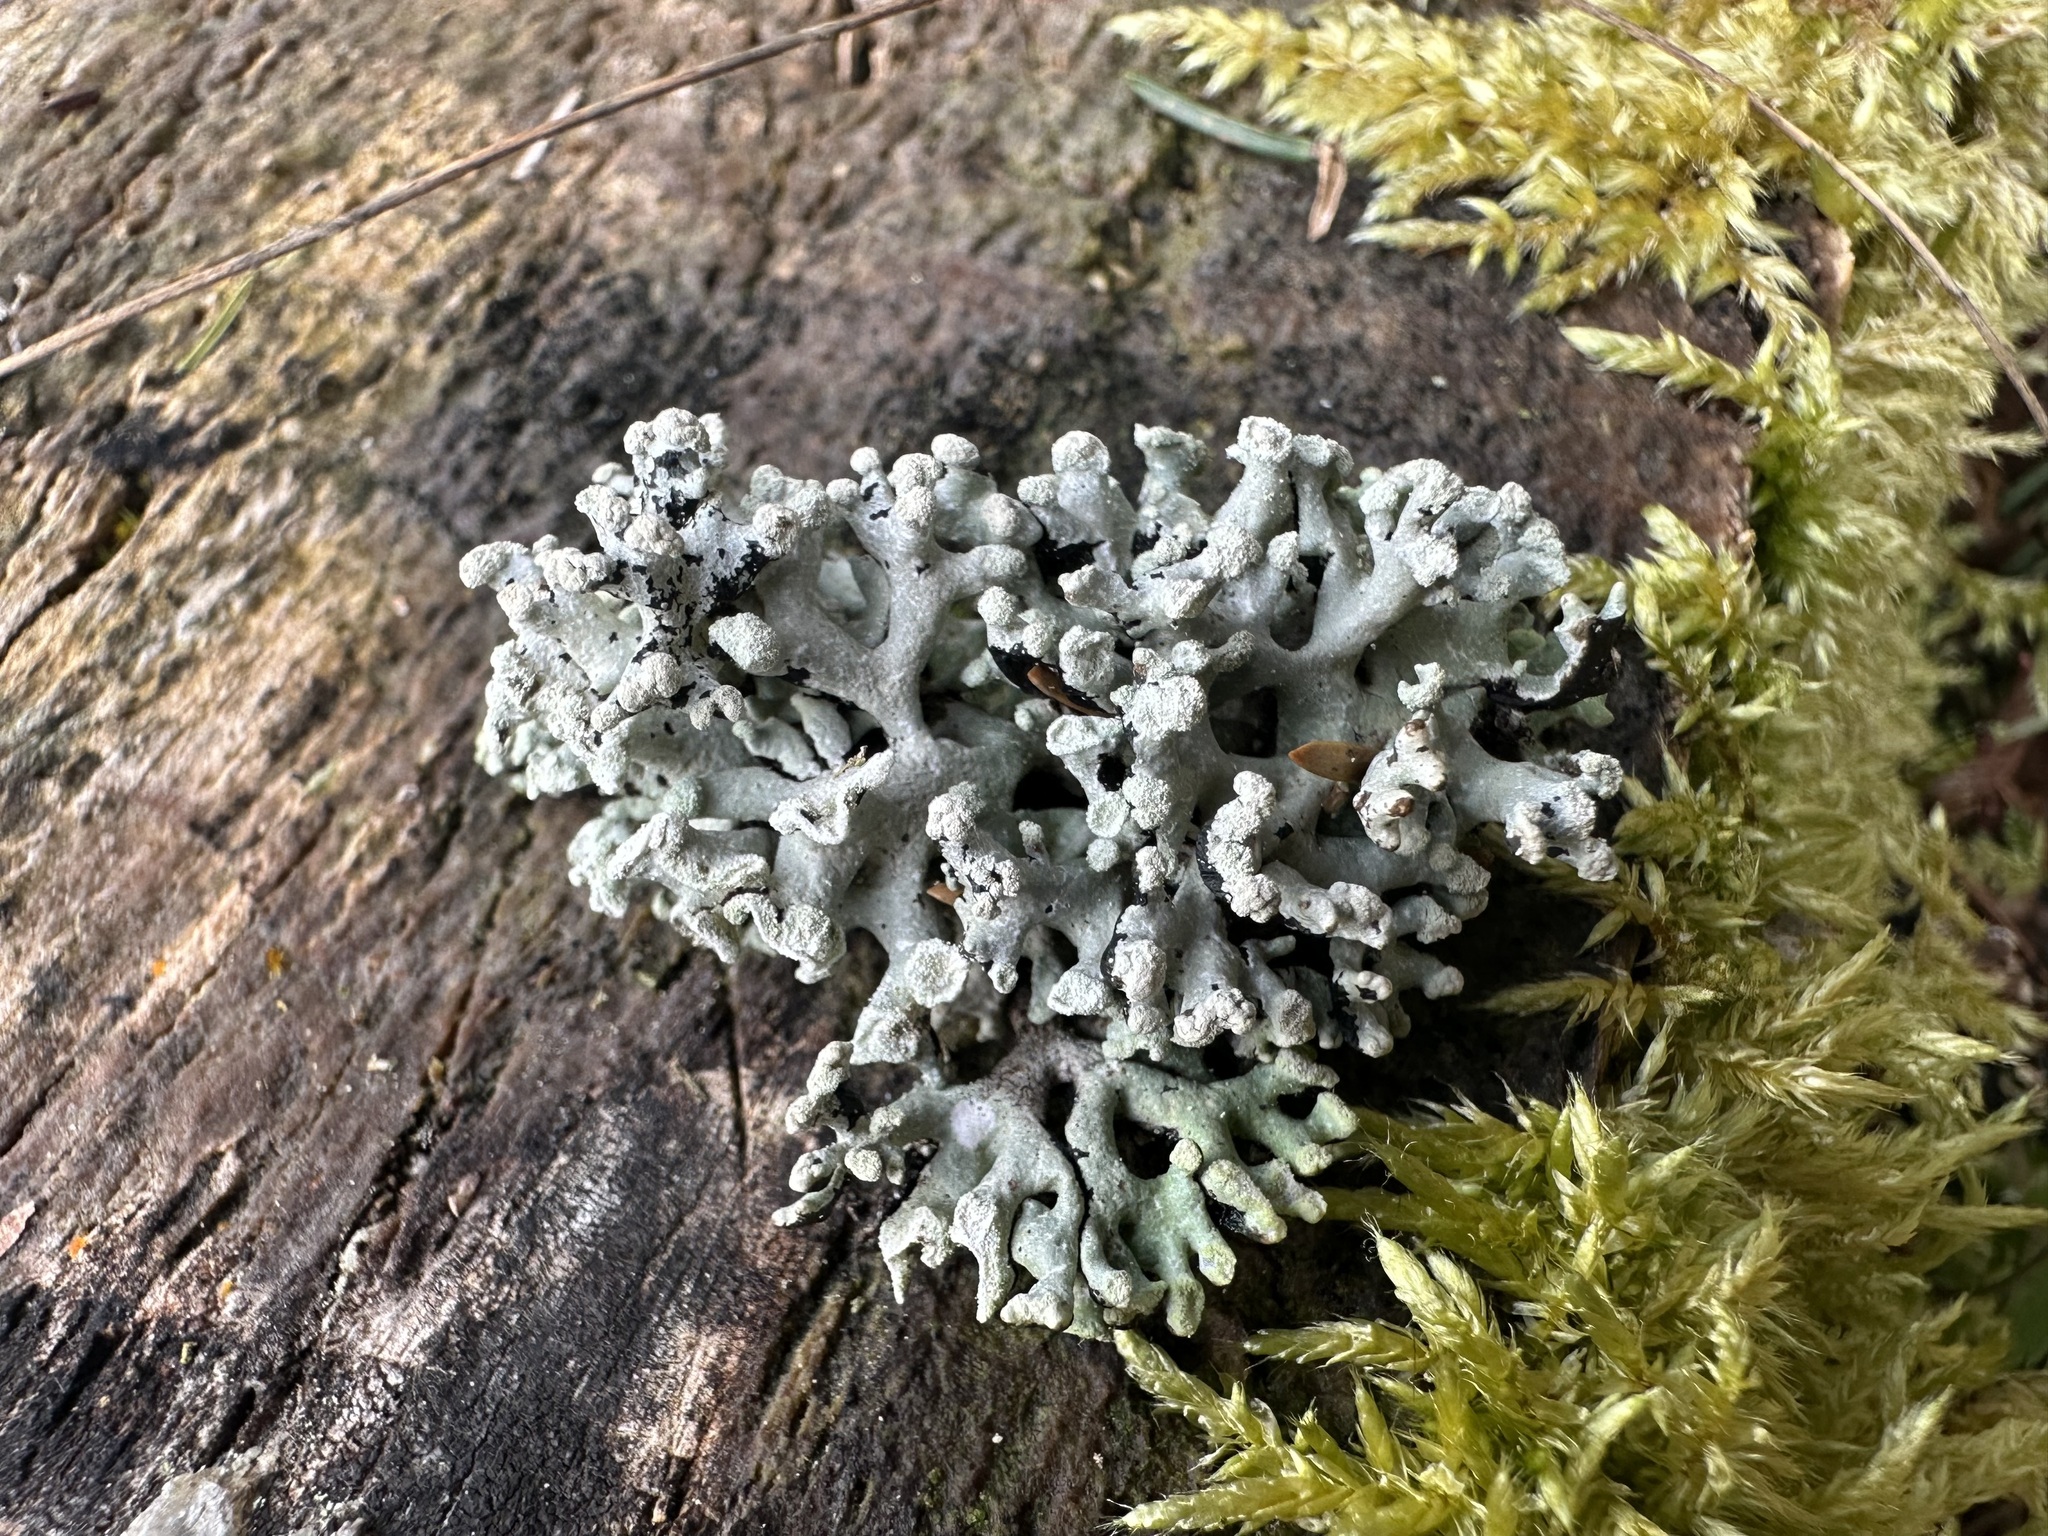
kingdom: Fungi
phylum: Ascomycota
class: Lecanoromycetes
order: Lecanorales
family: Parmeliaceae
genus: Hypogymnia
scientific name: Hypogymnia tubulosa
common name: Powder-headed tube lichen
